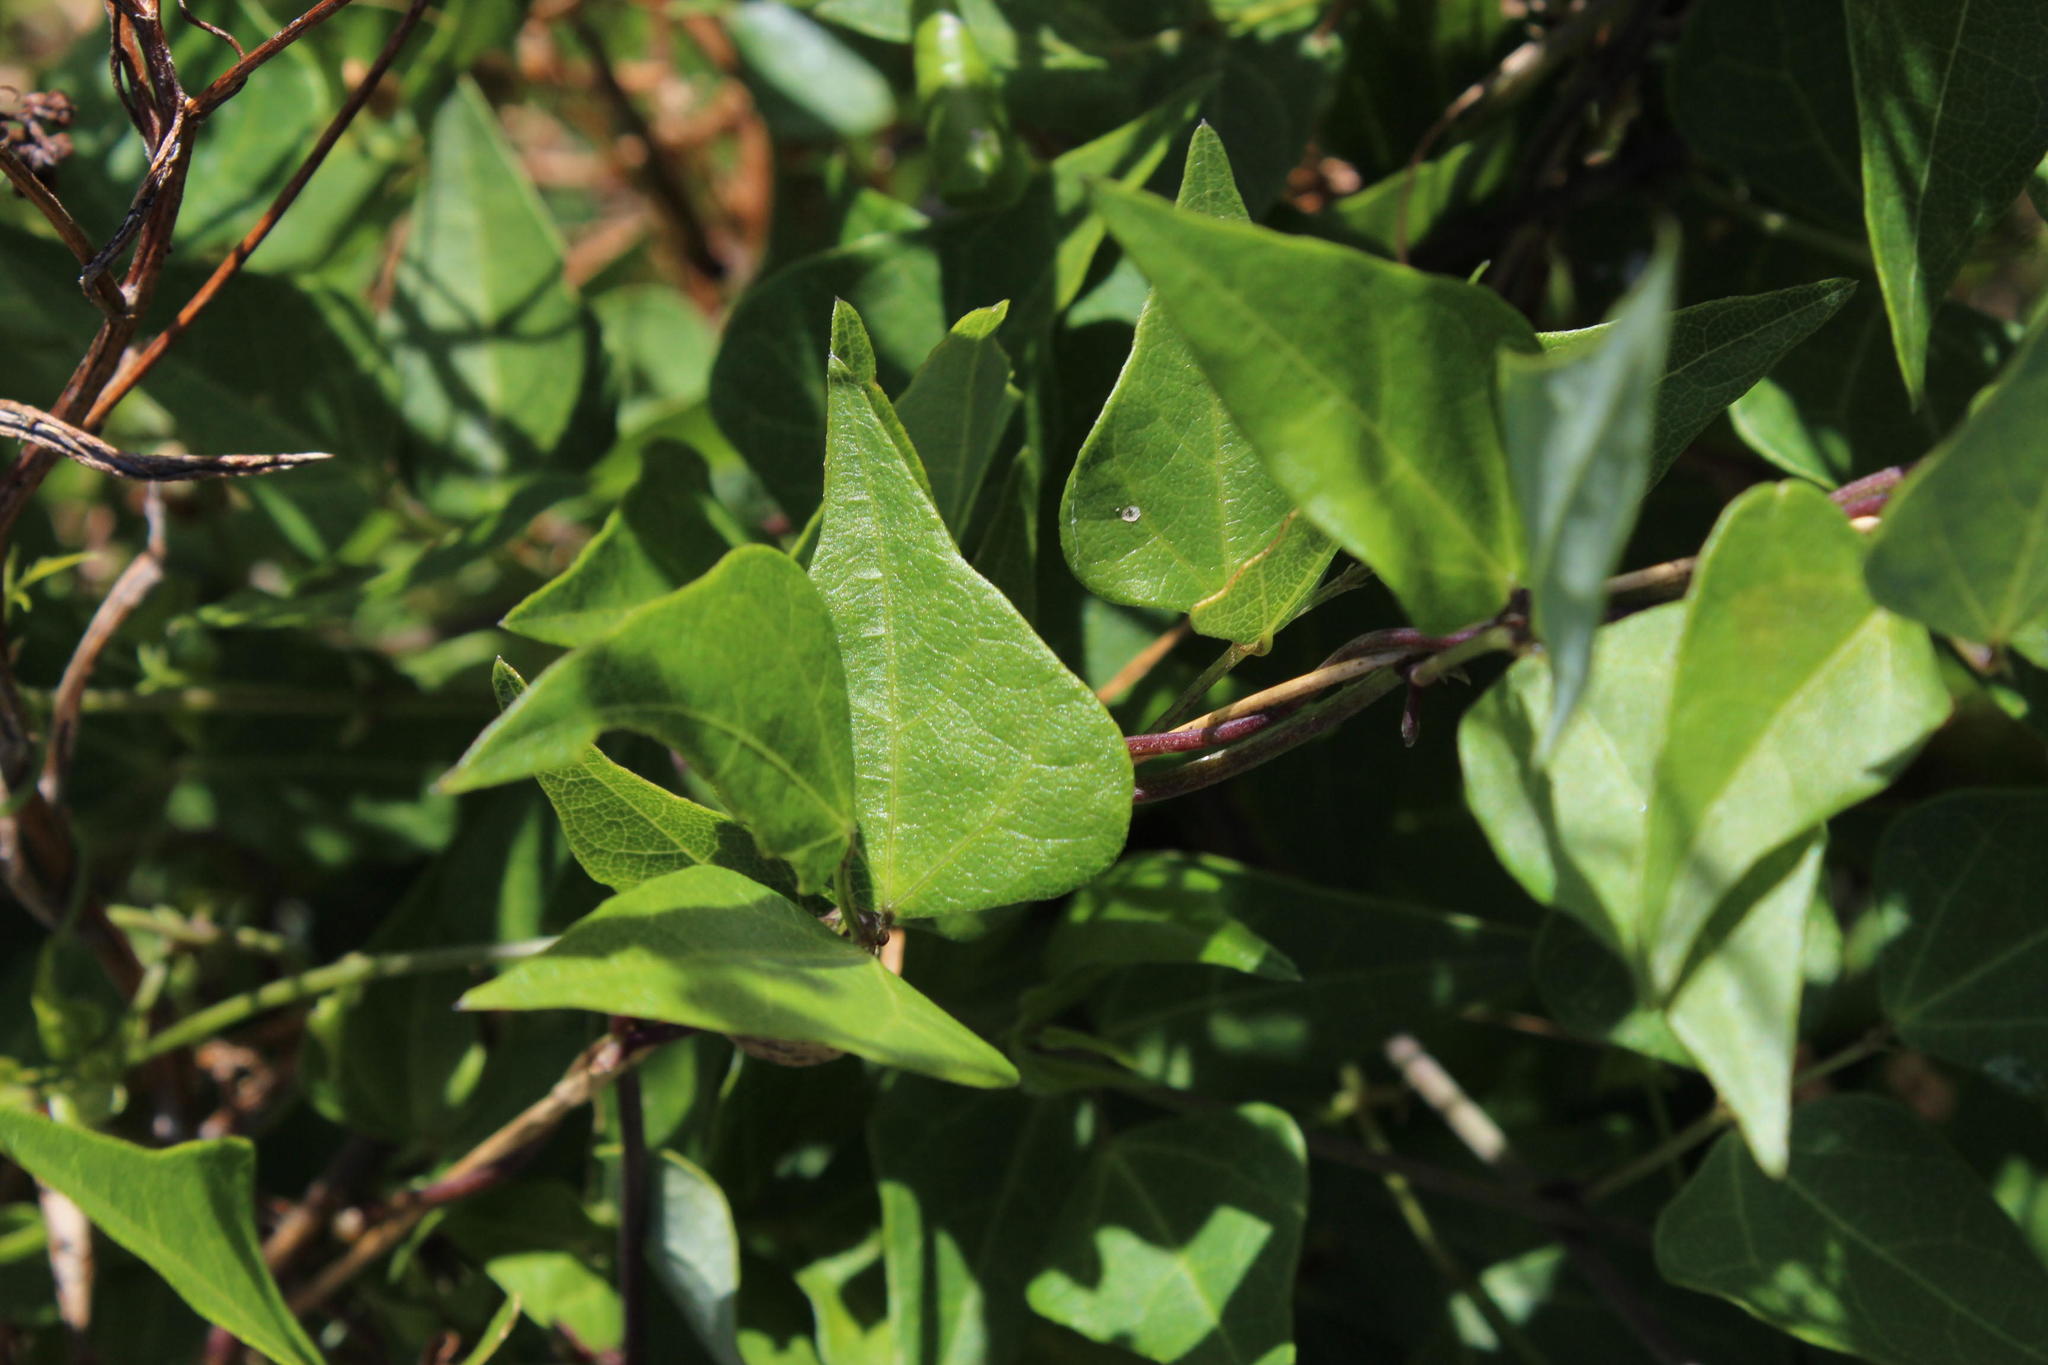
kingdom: Plantae
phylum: Tracheophyta
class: Magnoliopsida
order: Fabales
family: Fabaceae
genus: Dipogon
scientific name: Dipogon lignosus
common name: Okie bean
